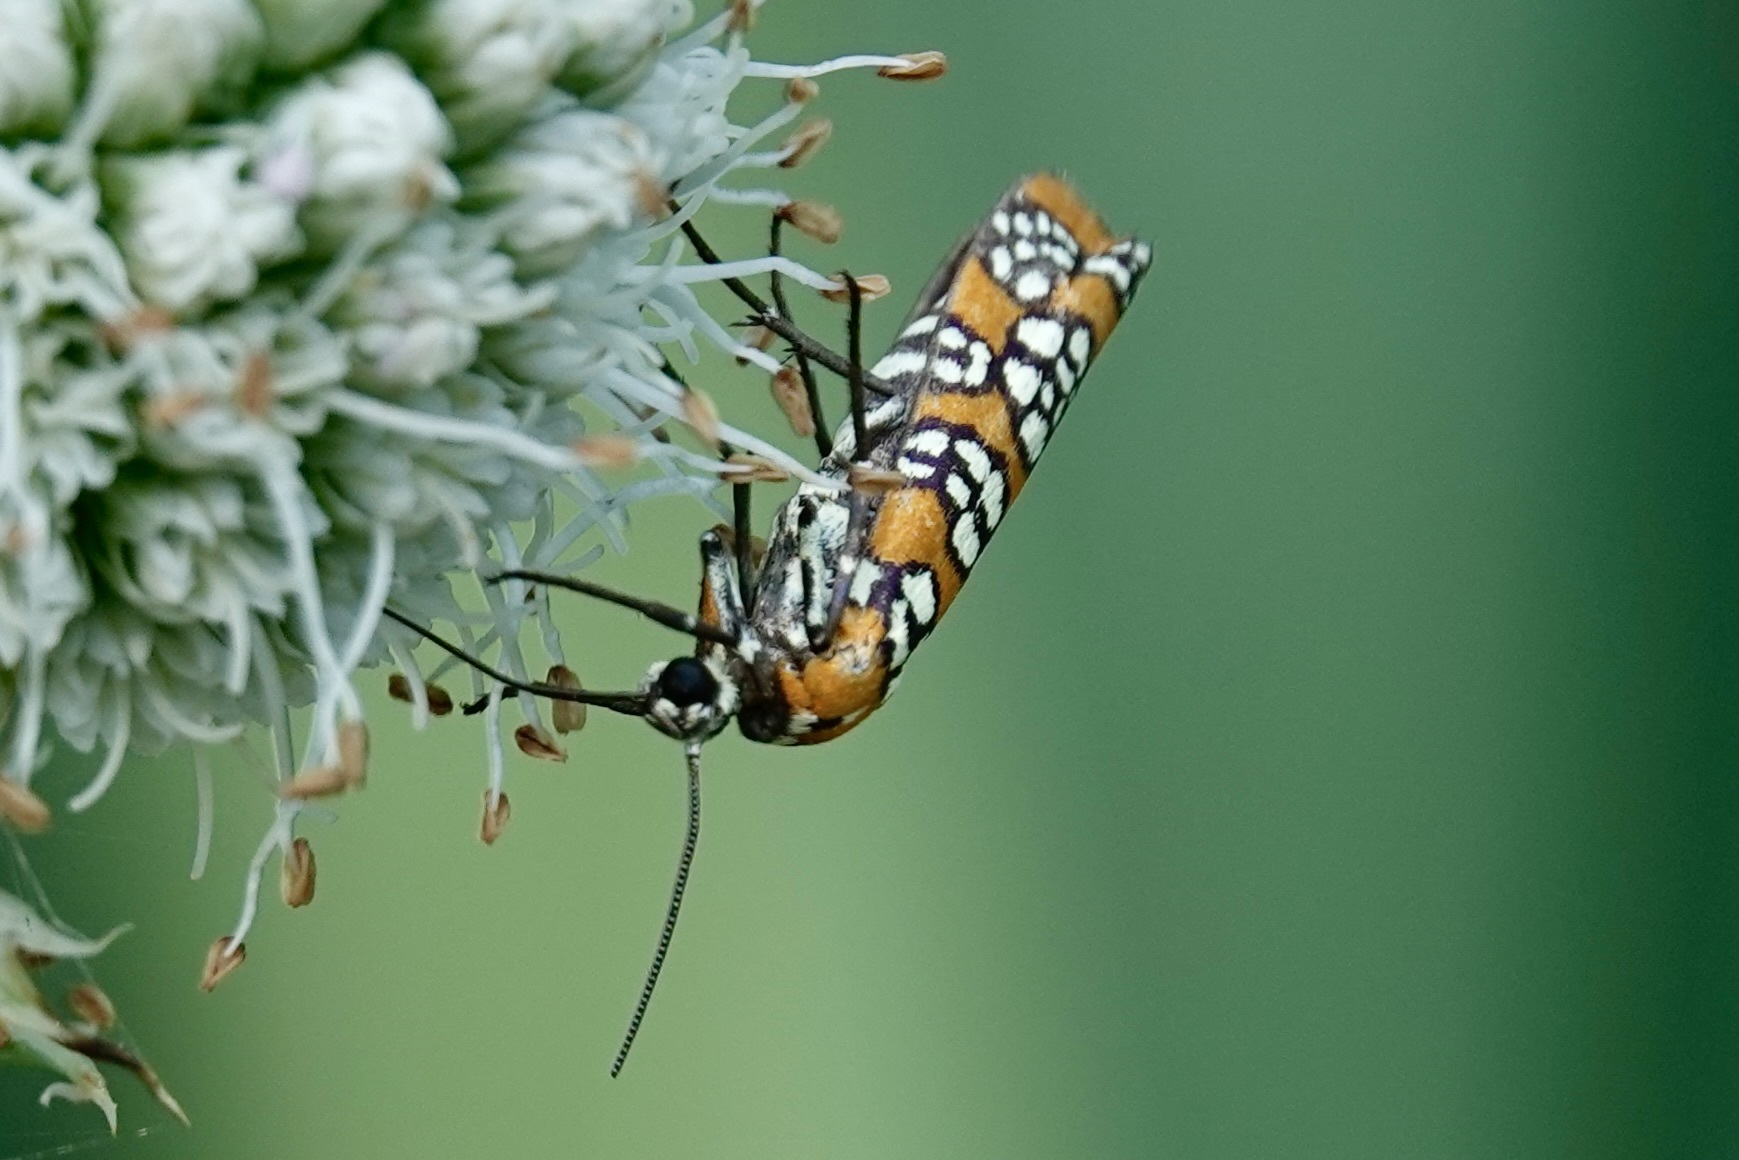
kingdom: Animalia
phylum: Arthropoda
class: Insecta
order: Lepidoptera
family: Attevidae
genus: Atteva
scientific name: Atteva punctella
